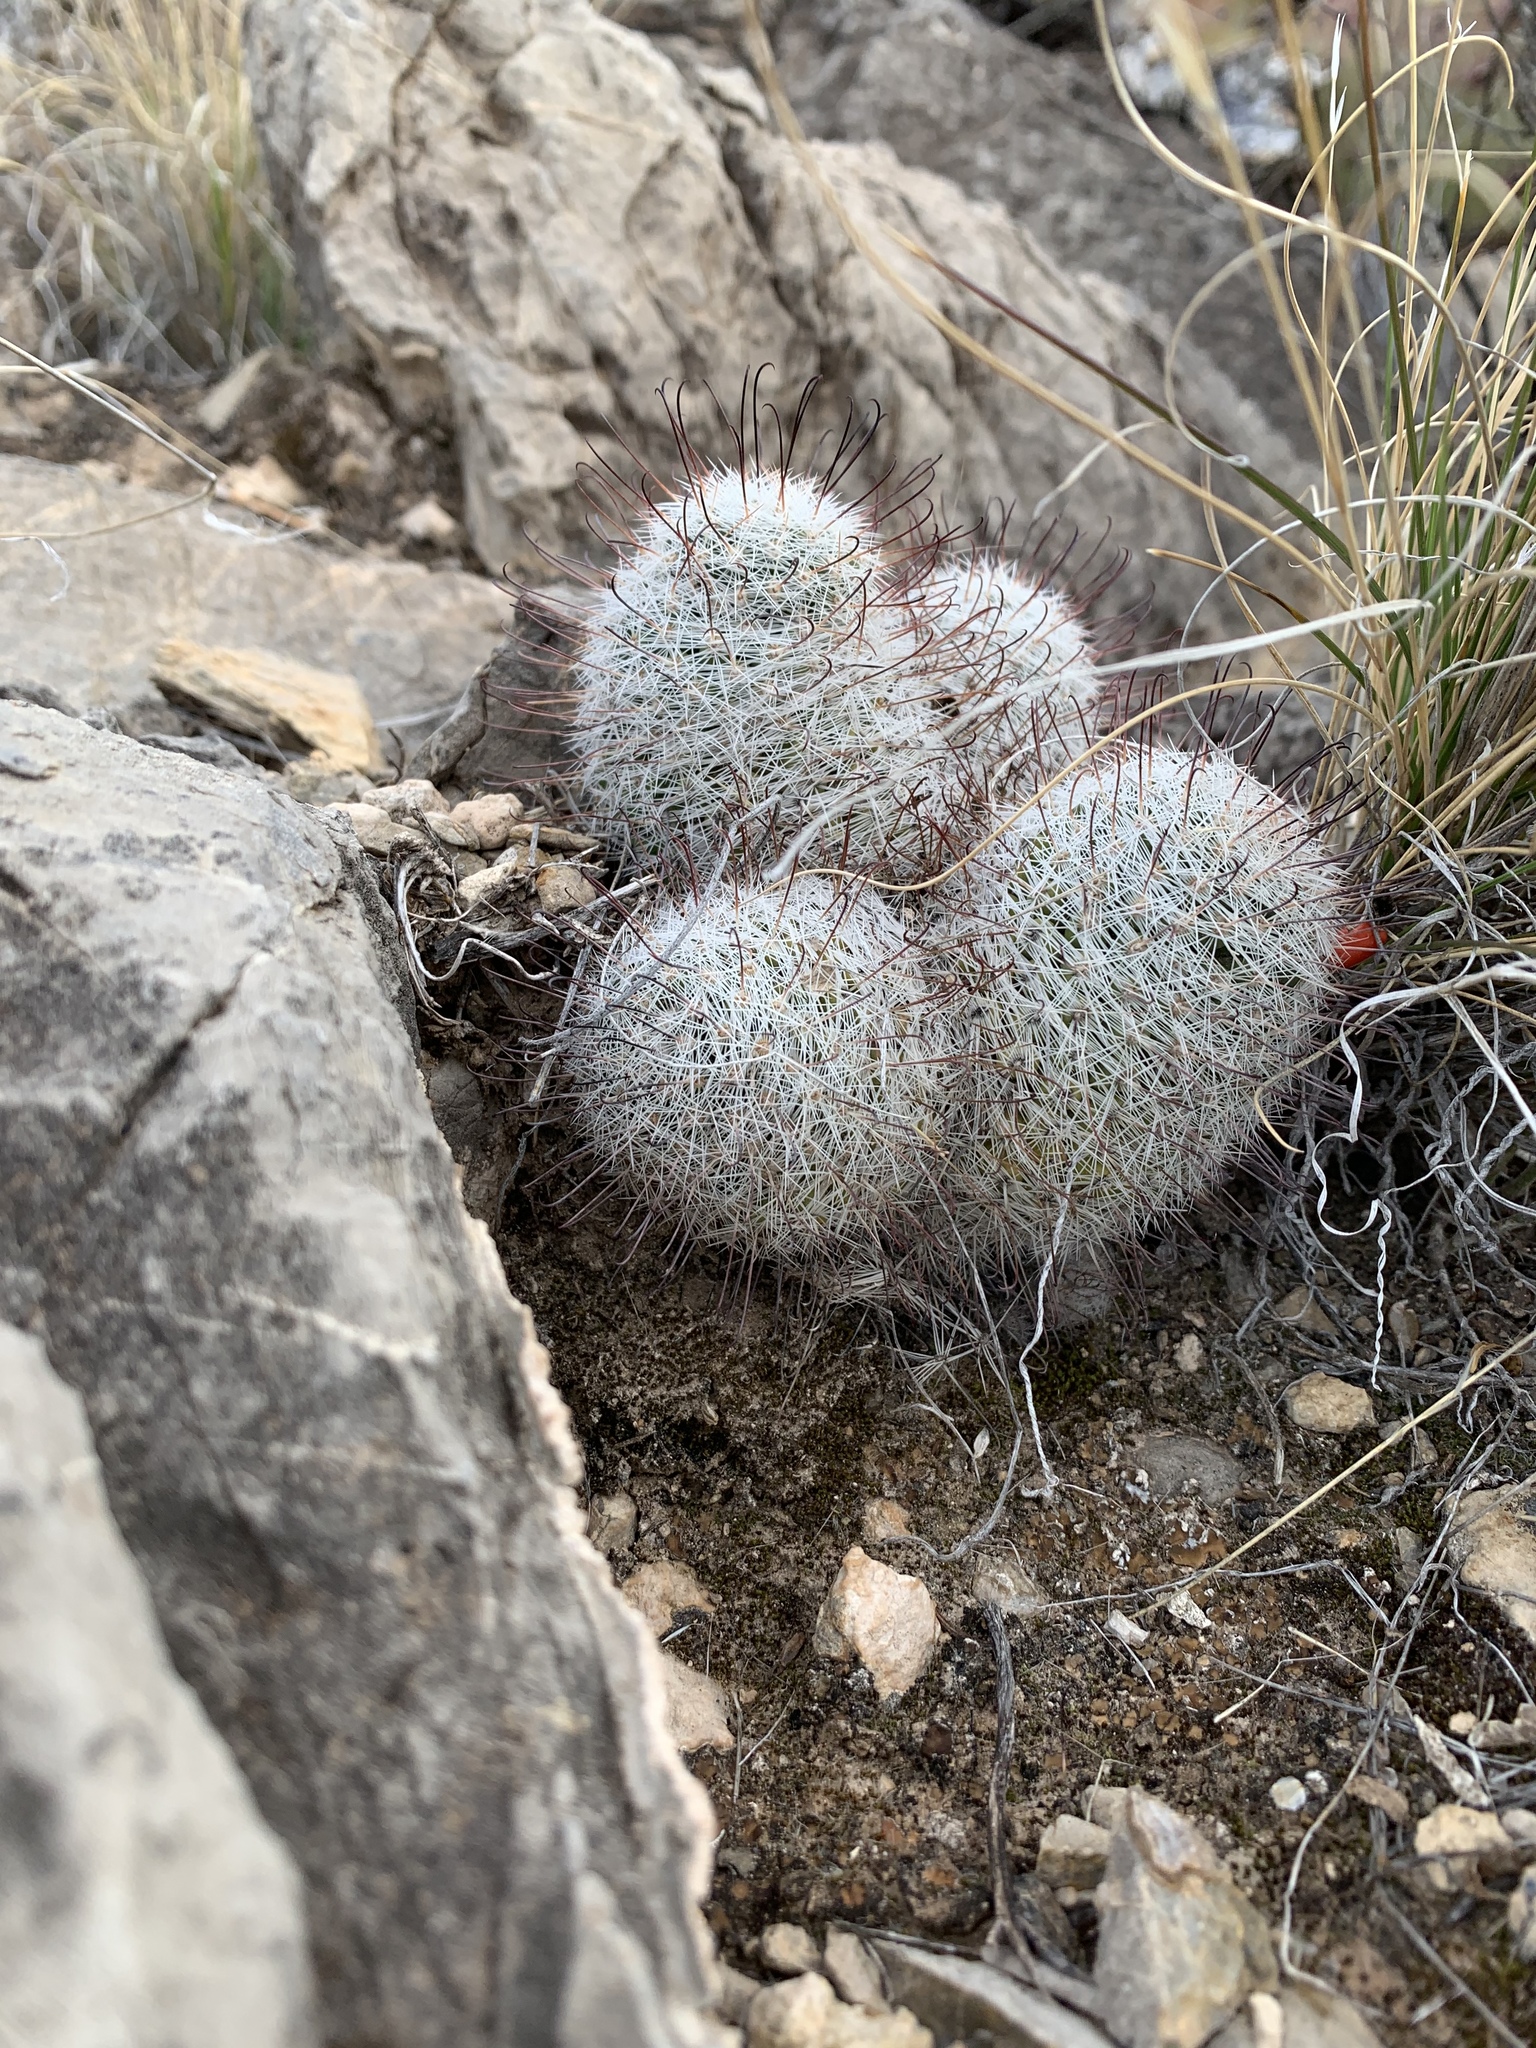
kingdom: Plantae
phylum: Tracheophyta
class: Magnoliopsida
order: Caryophyllales
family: Cactaceae
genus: Cochemiea
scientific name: Cochemiea grahamii
